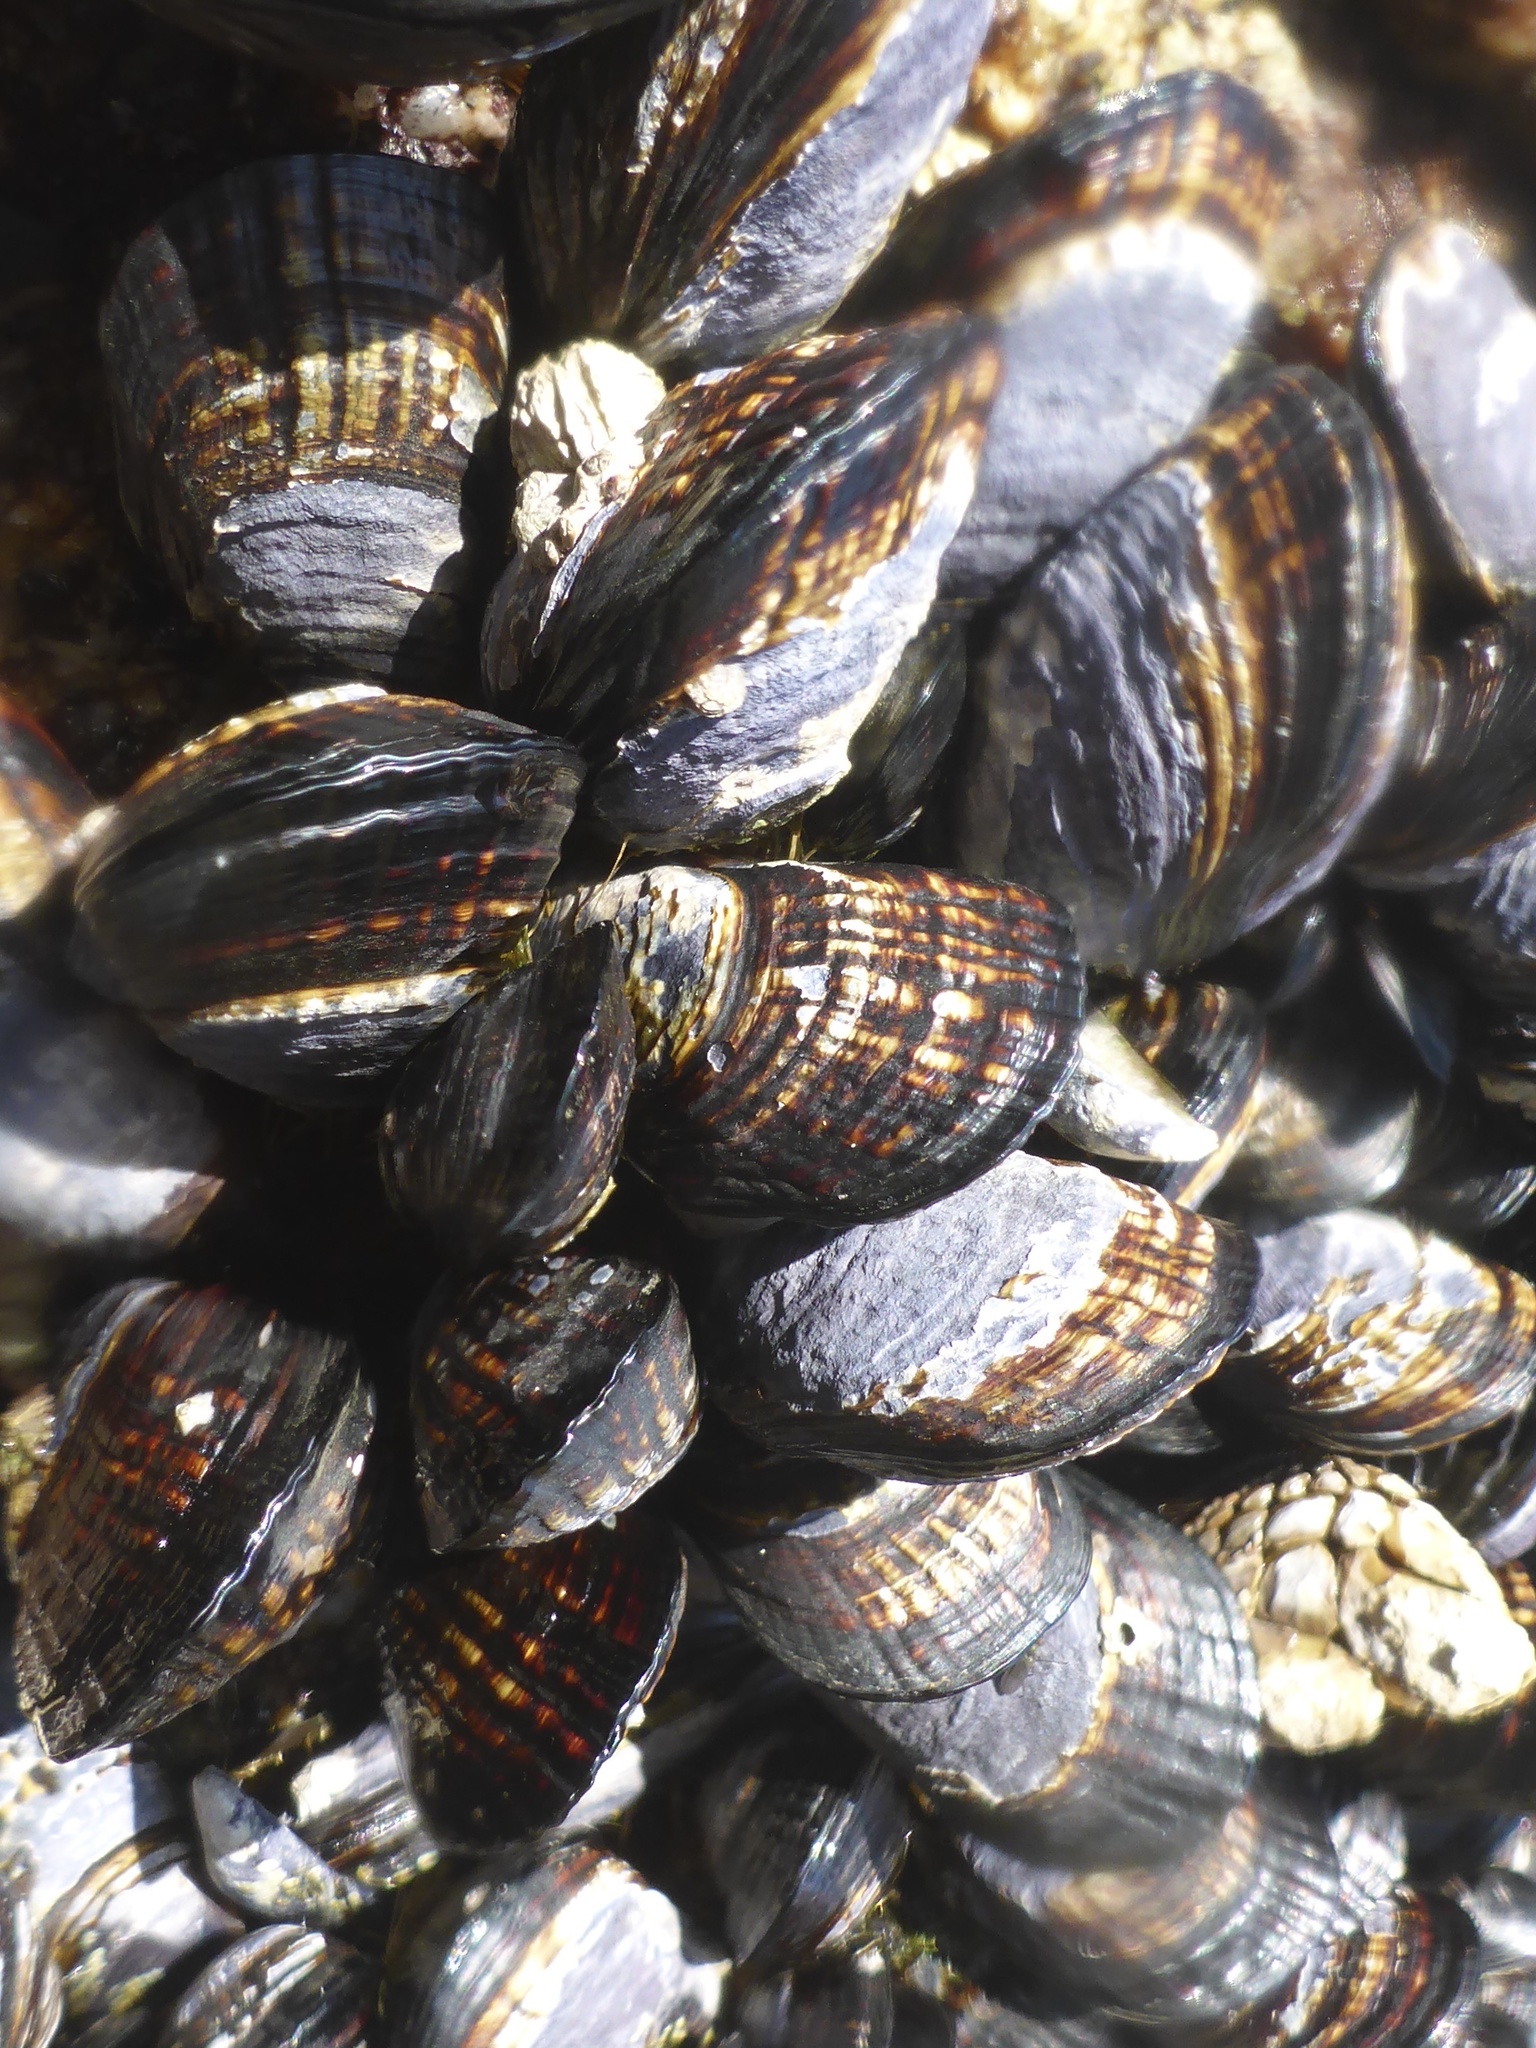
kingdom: Animalia
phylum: Mollusca
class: Bivalvia
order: Mytilida
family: Mytilidae
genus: Mytilus
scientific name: Mytilus californianus
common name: California mussel
